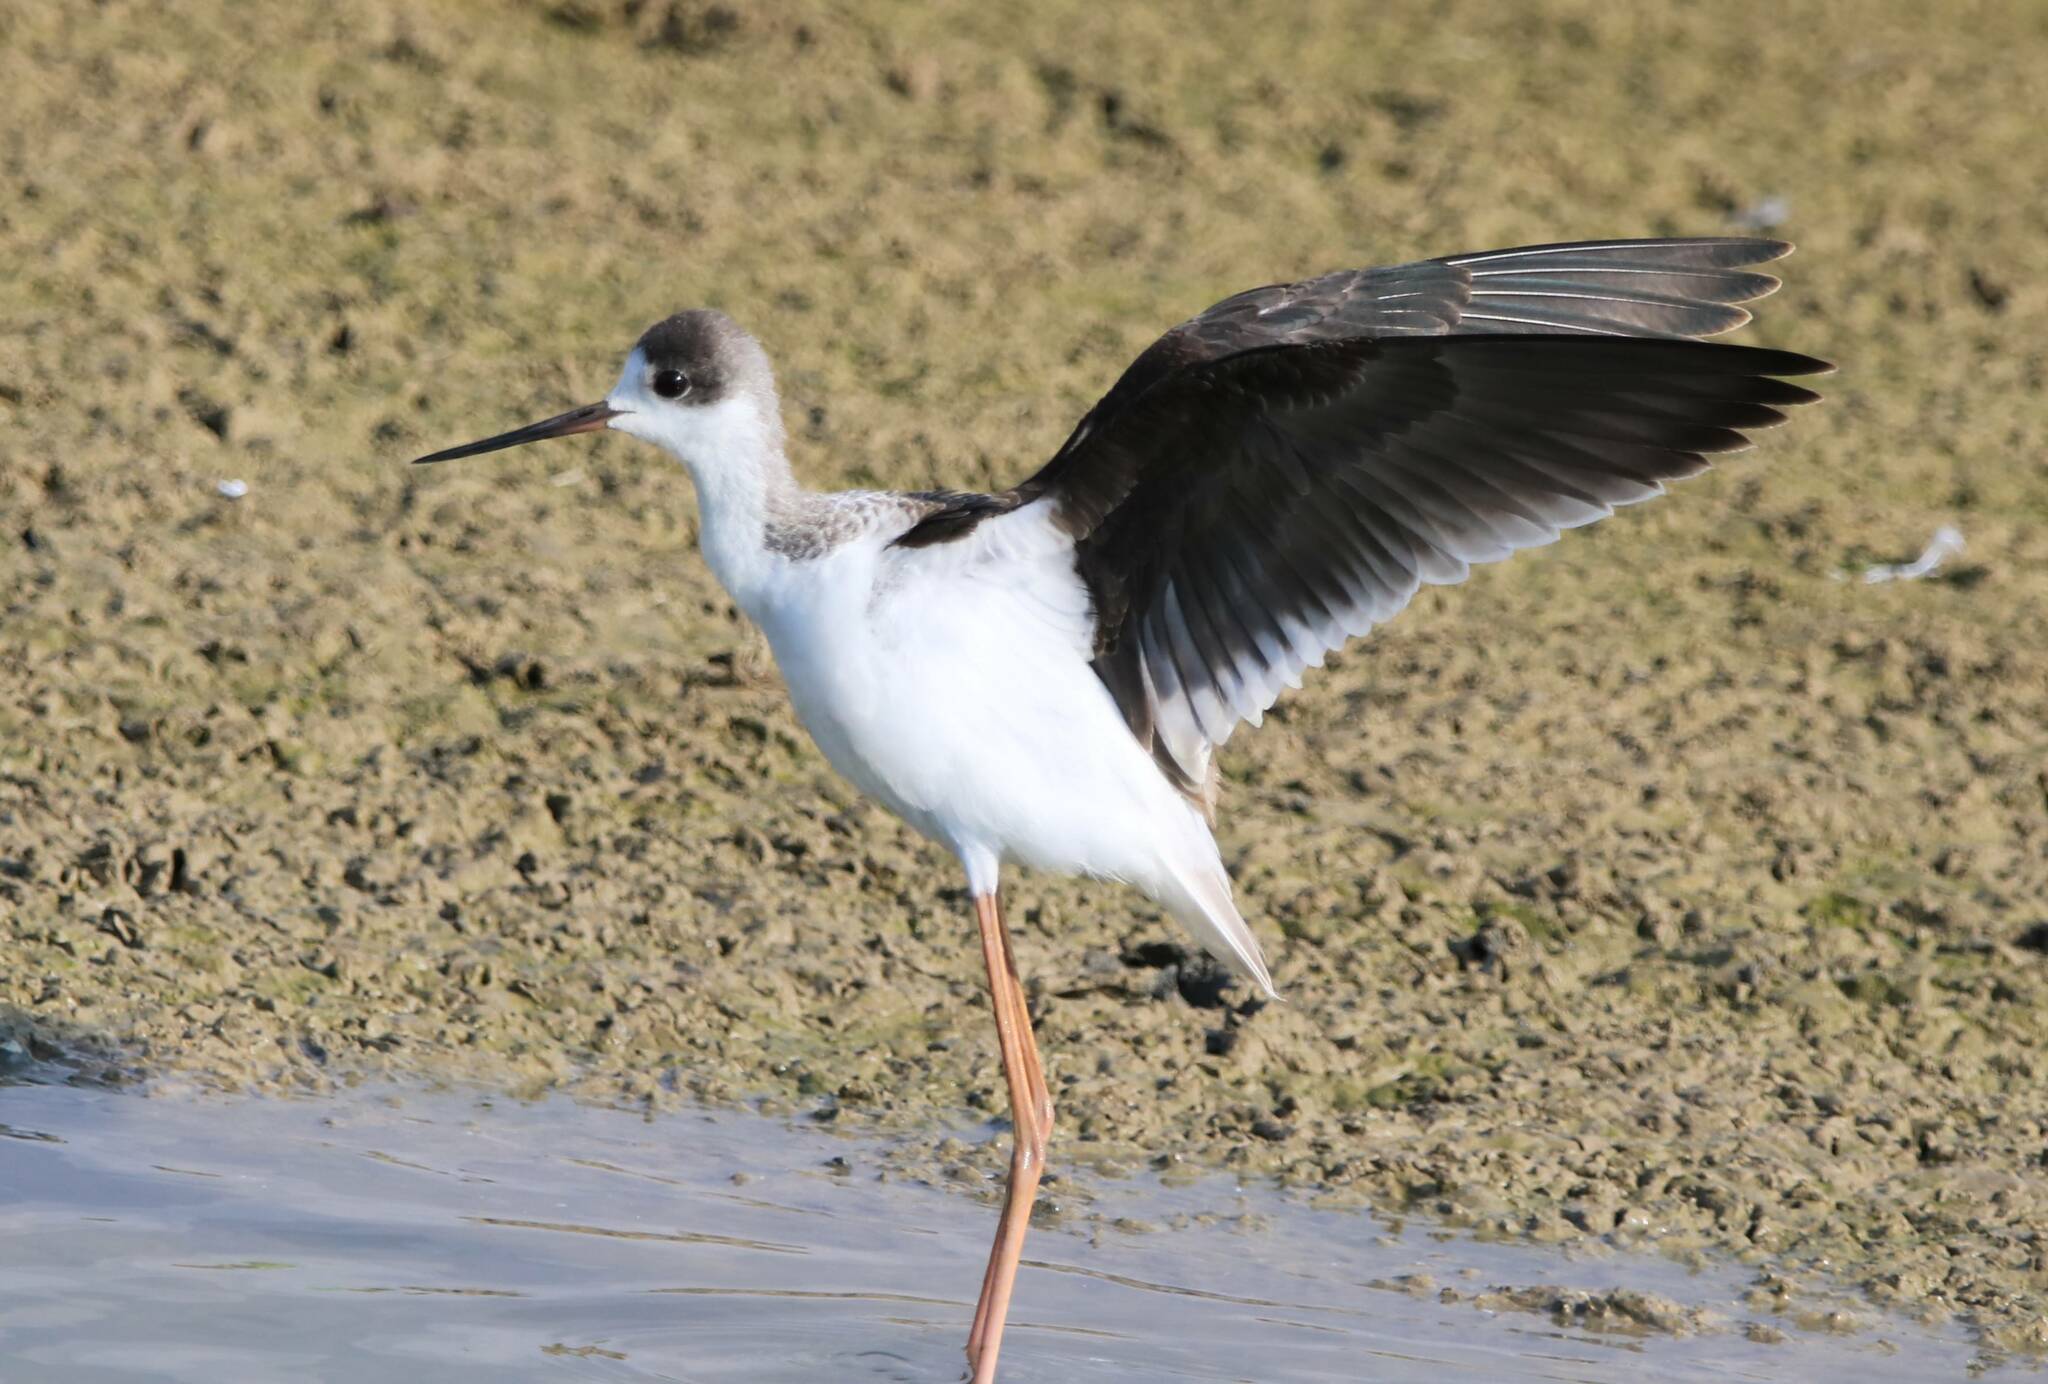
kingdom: Animalia
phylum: Chordata
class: Aves
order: Charadriiformes
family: Recurvirostridae
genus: Himantopus
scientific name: Himantopus himantopus
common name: Black-winged stilt
